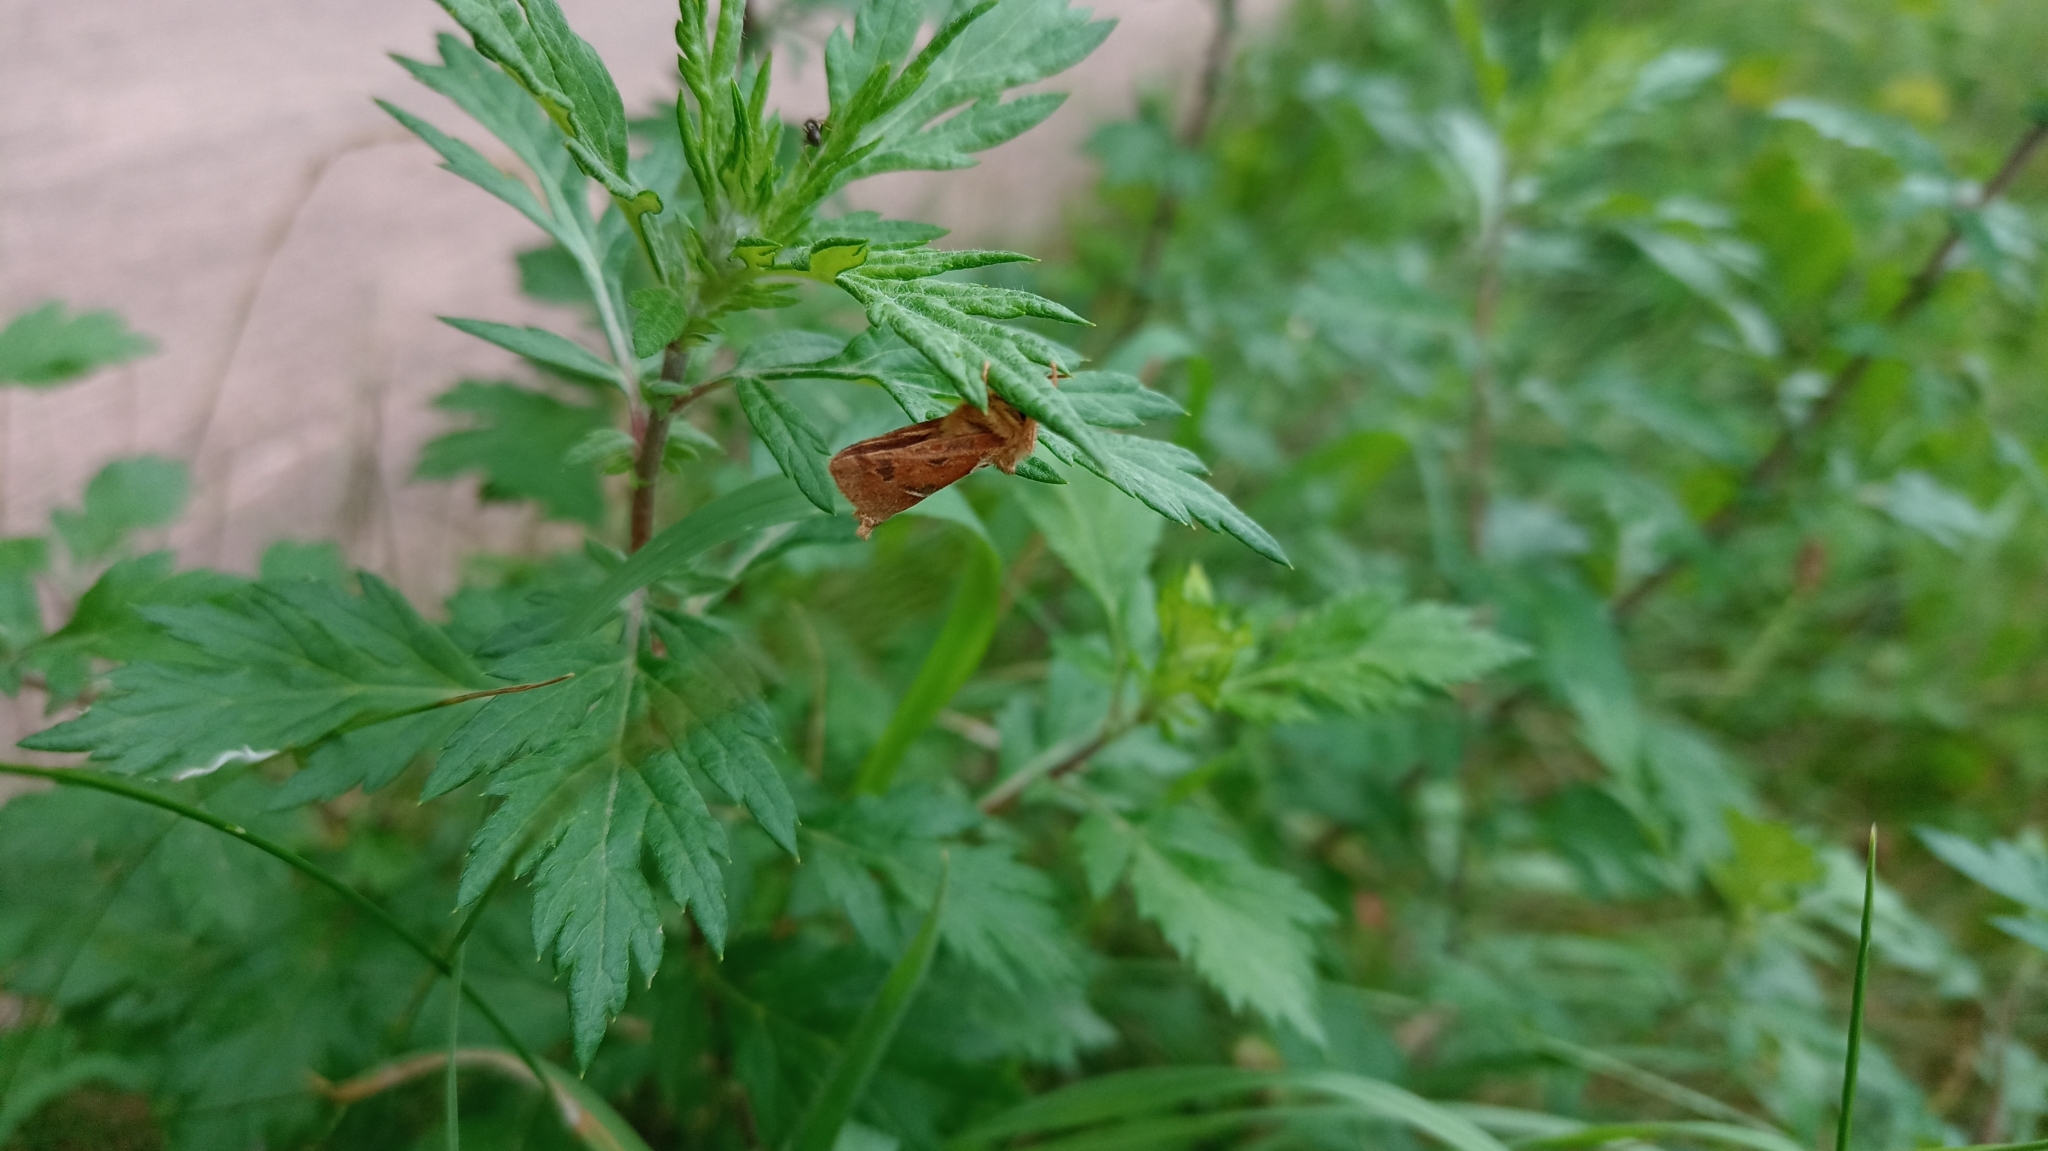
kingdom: Animalia
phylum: Arthropoda
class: Insecta
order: Lepidoptera
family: Hepialidae
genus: Triodia
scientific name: Triodia sylvina
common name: Orange swift
